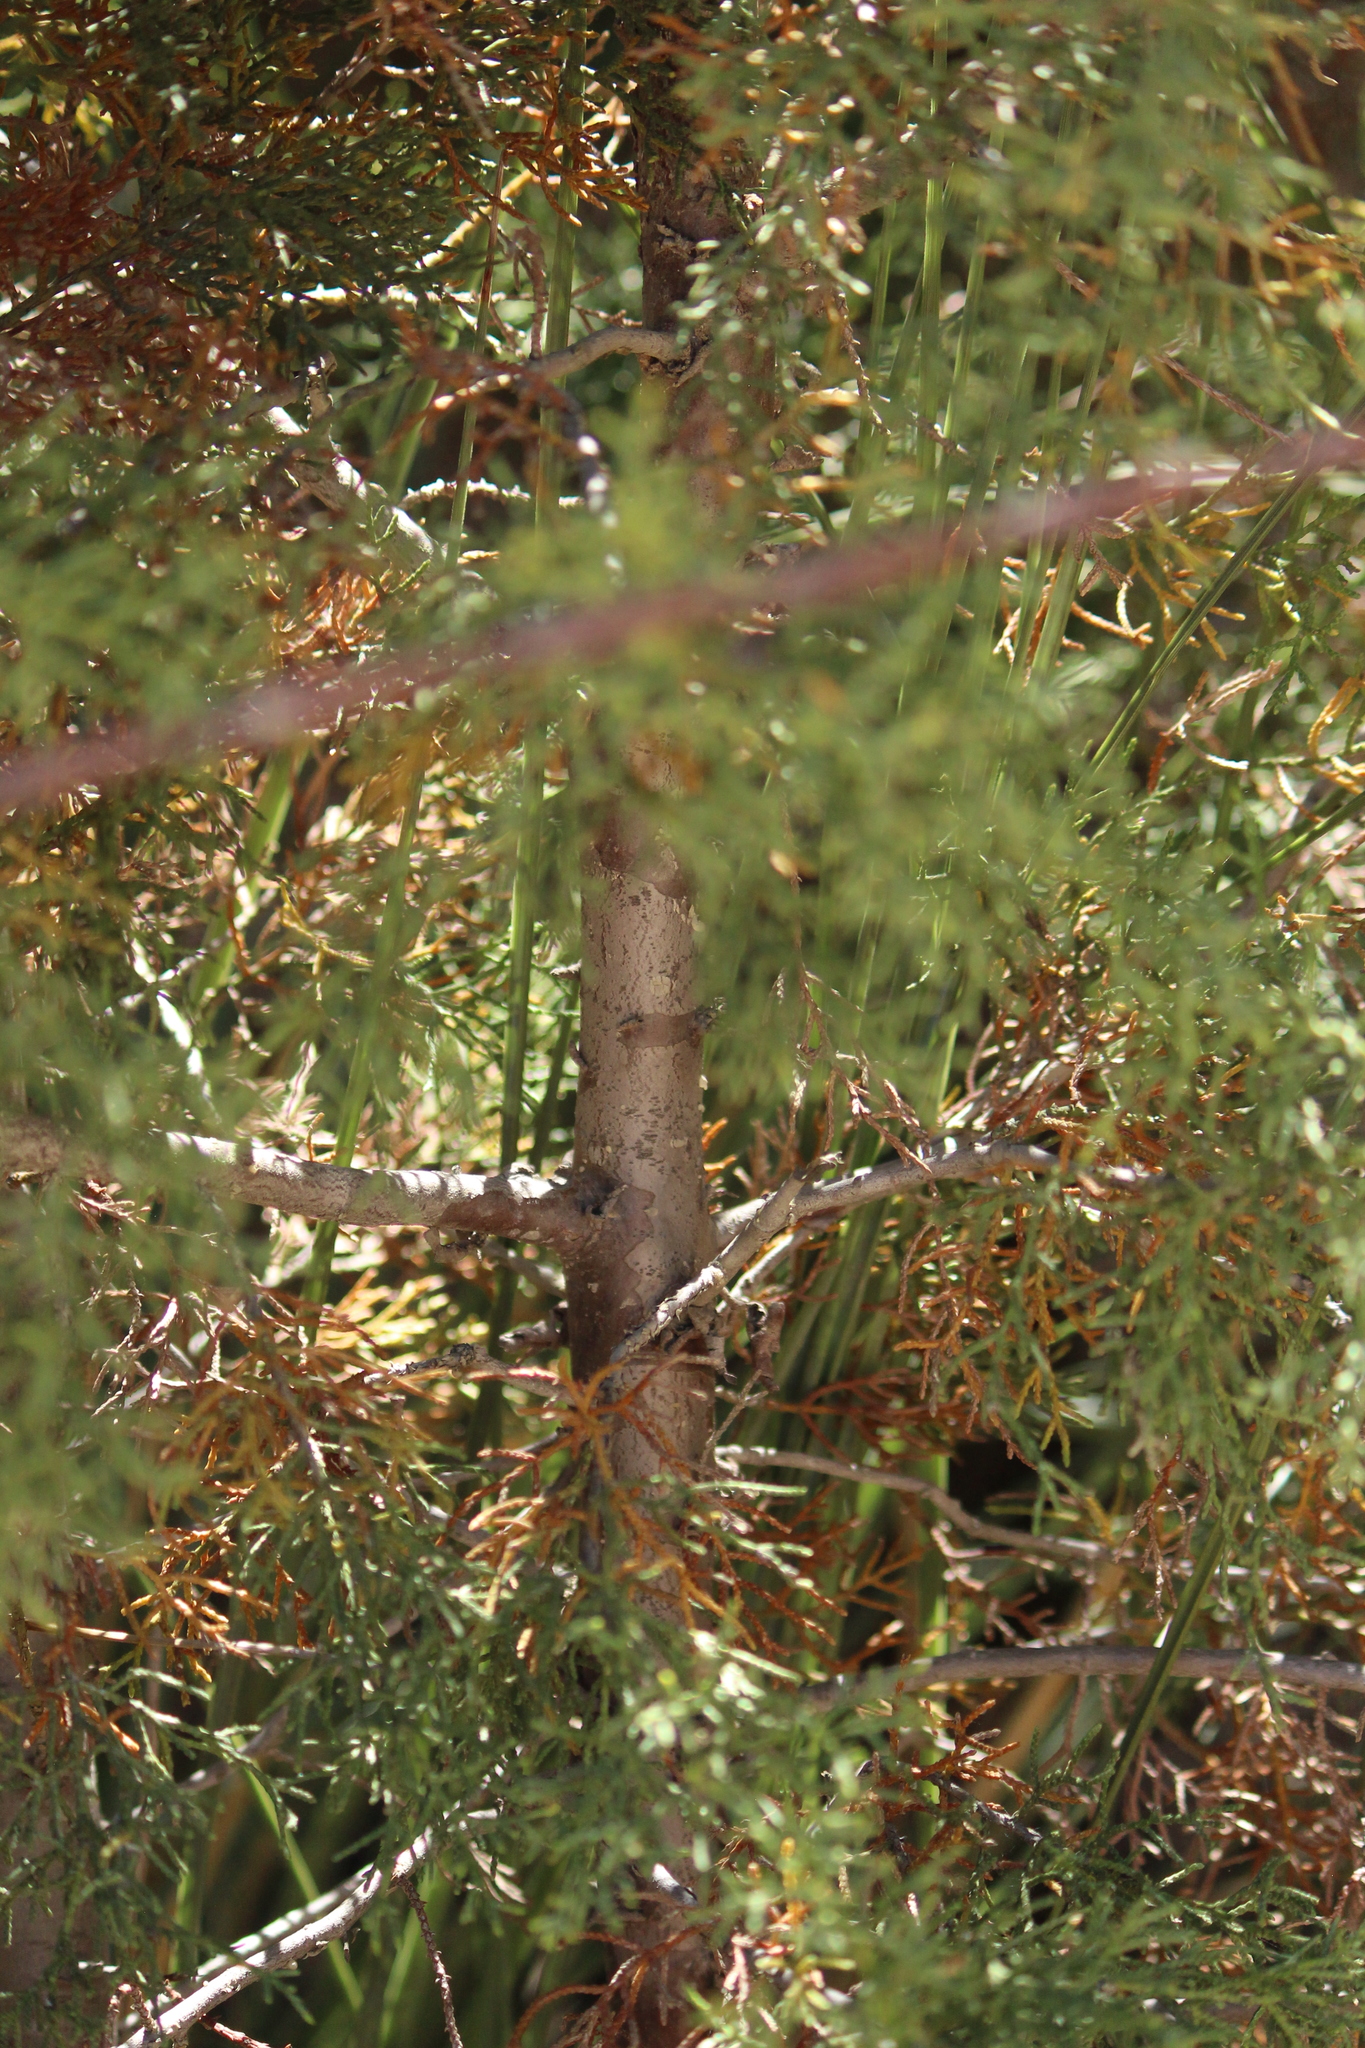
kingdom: Plantae
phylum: Tracheophyta
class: Pinopsida
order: Pinales
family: Cupressaceae
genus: Cupressus
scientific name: Cupressus guadalupensis
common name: Forbes cypress
